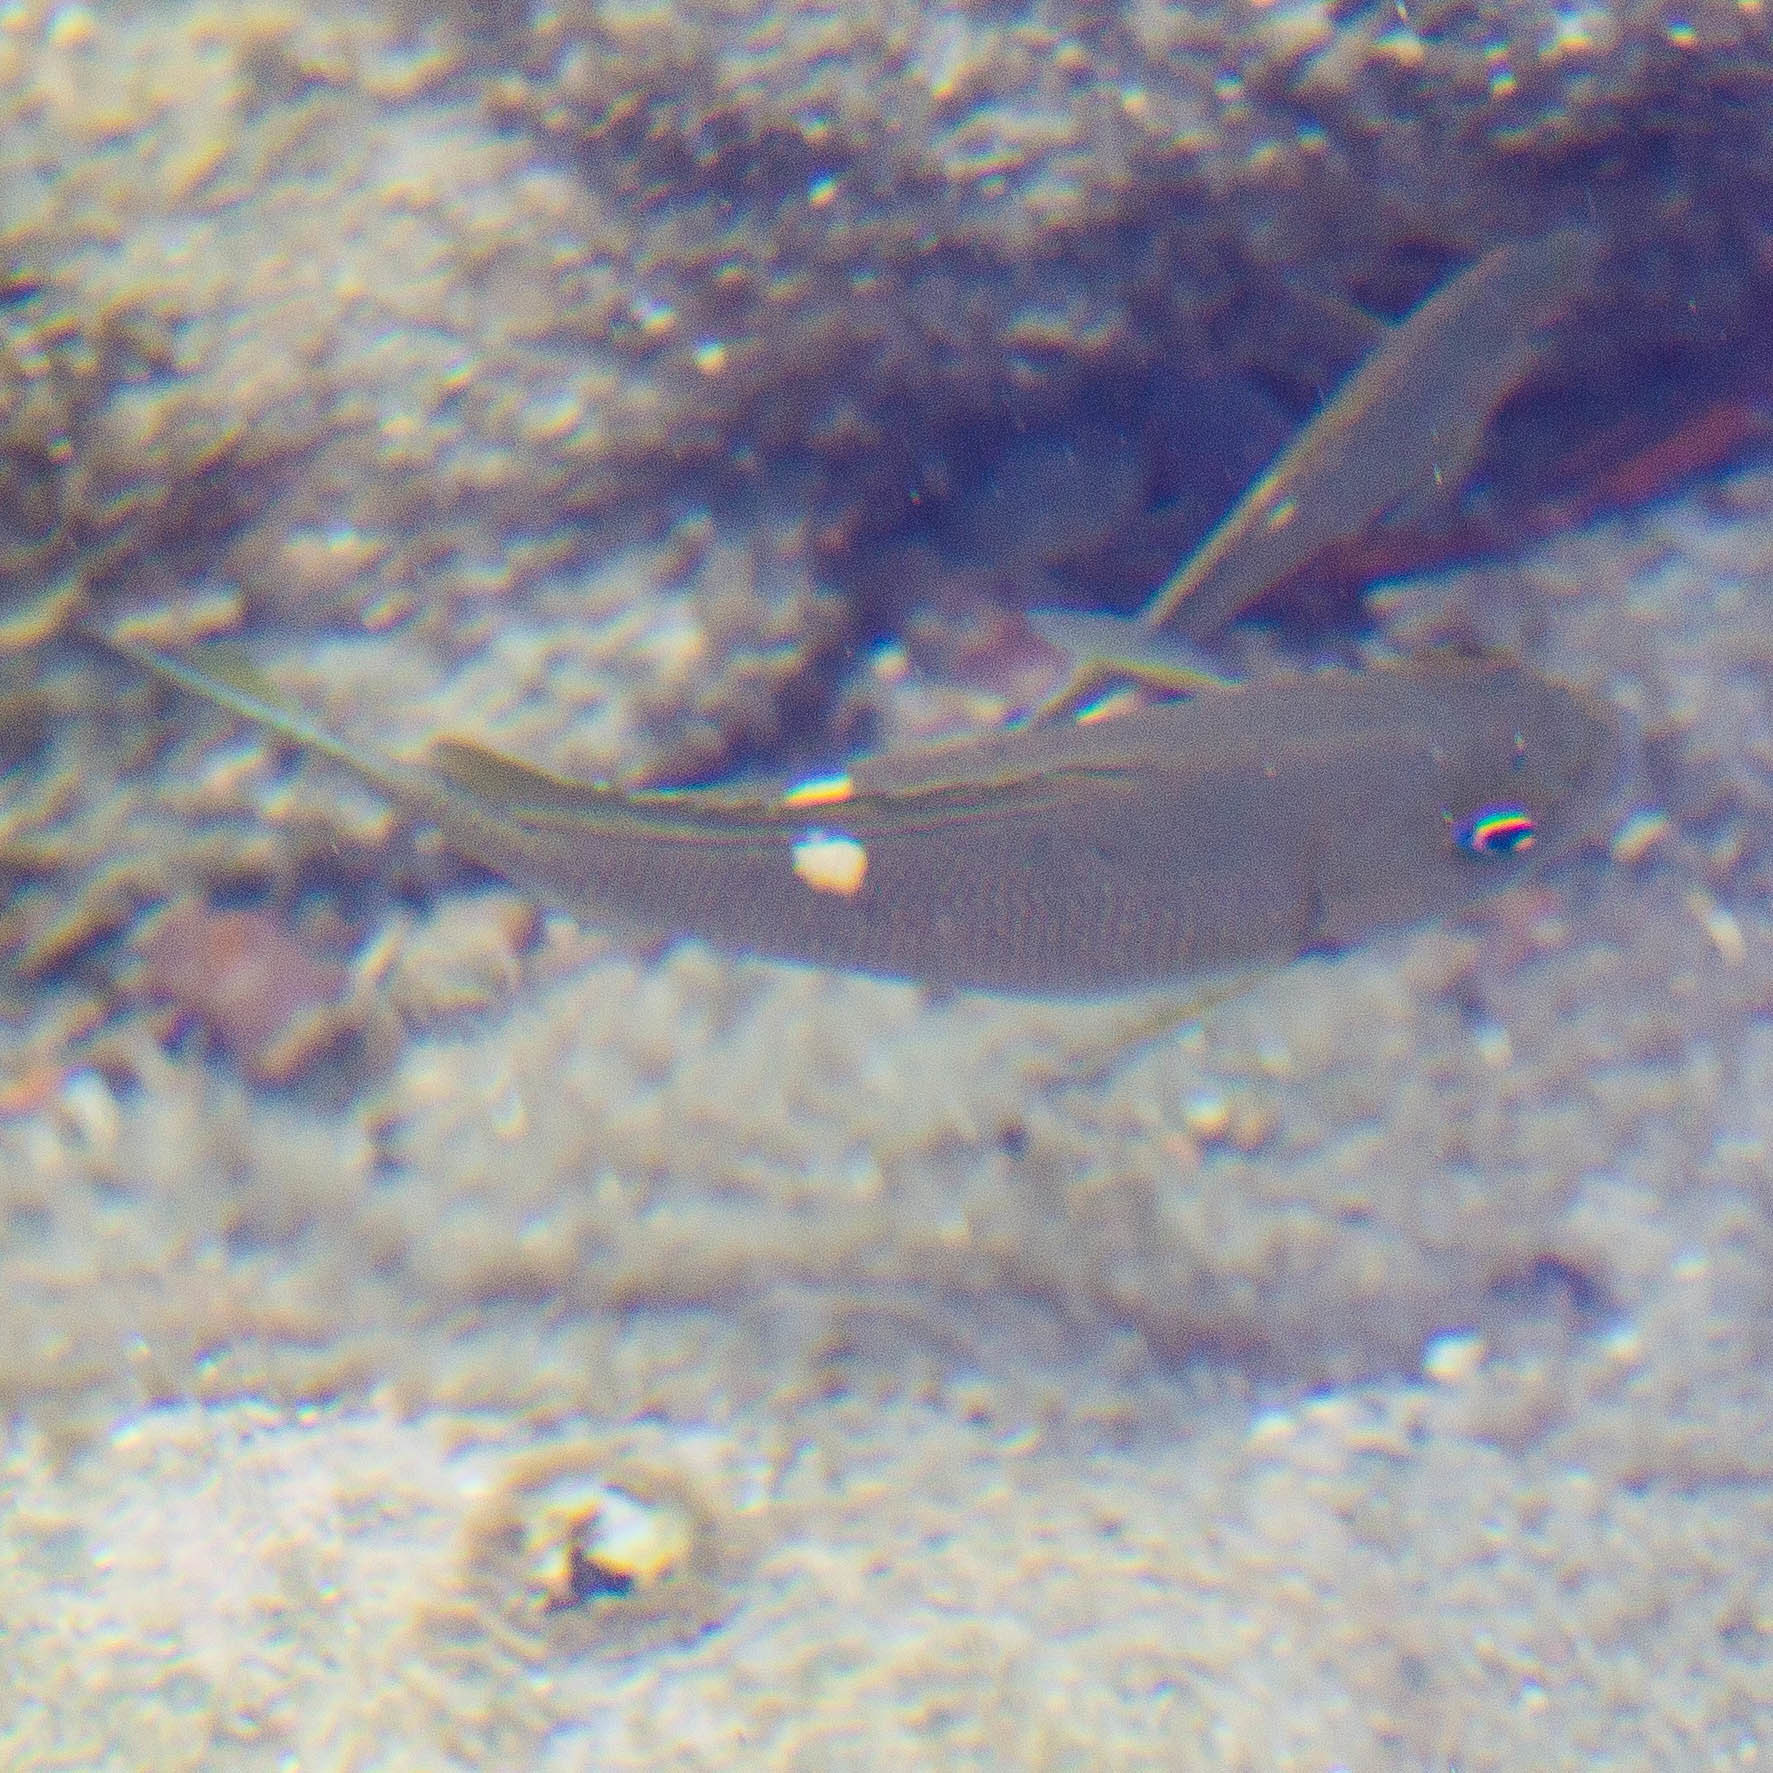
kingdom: Animalia
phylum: Chordata
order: Perciformes
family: Kyphosidae
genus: Girella
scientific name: Girella nigricans
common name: Opaleye
